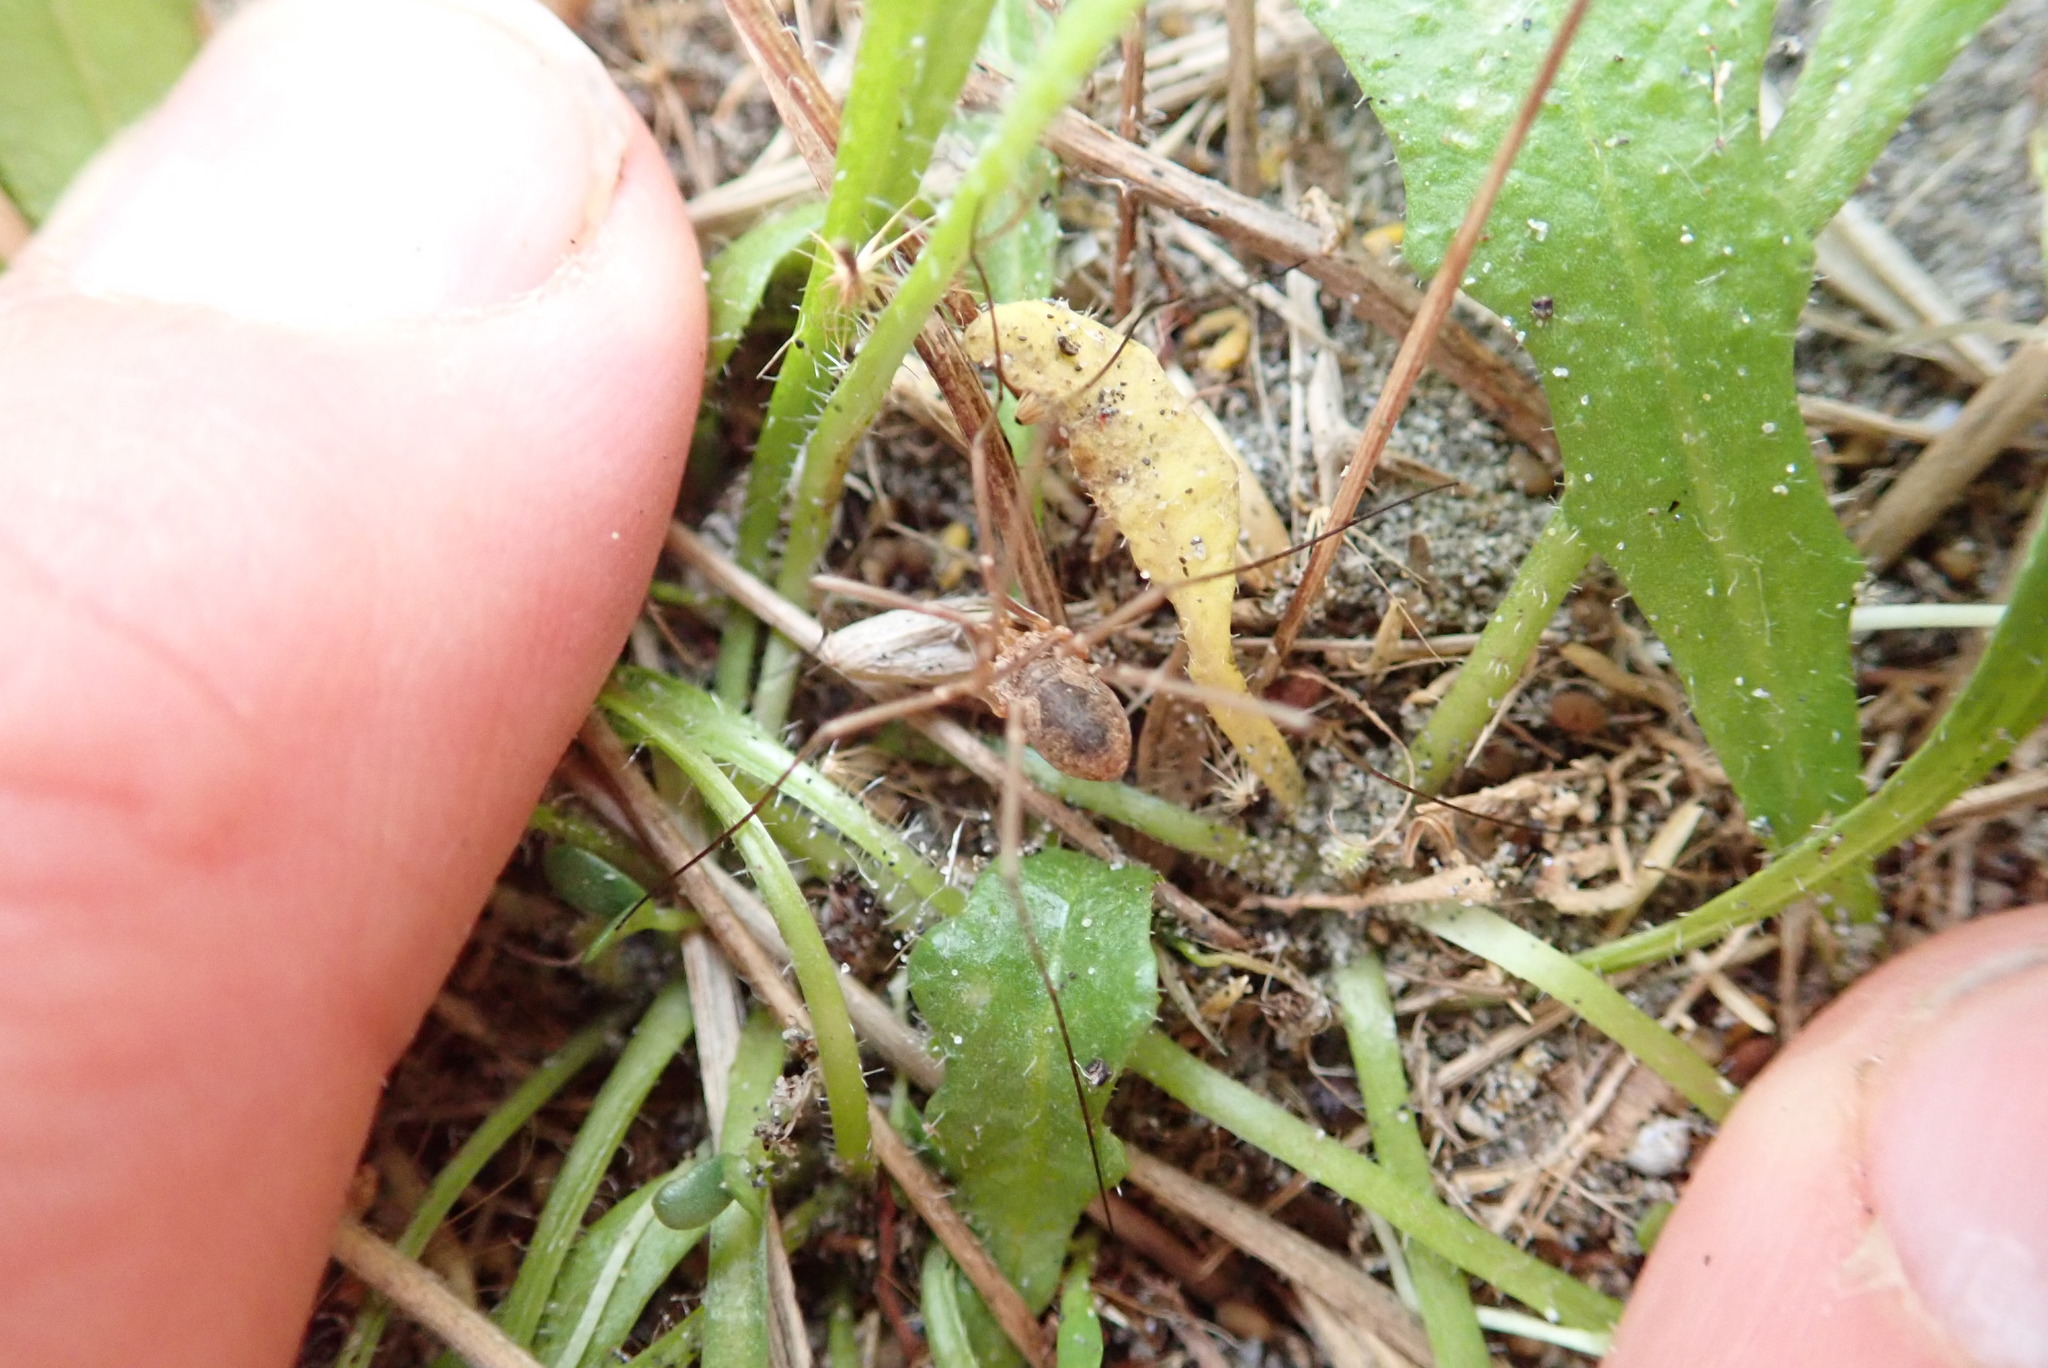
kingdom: Animalia
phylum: Arthropoda
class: Arachnida
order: Opiliones
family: Phalangiidae
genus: Phalangium
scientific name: Phalangium opilio
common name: Daddy longleg
